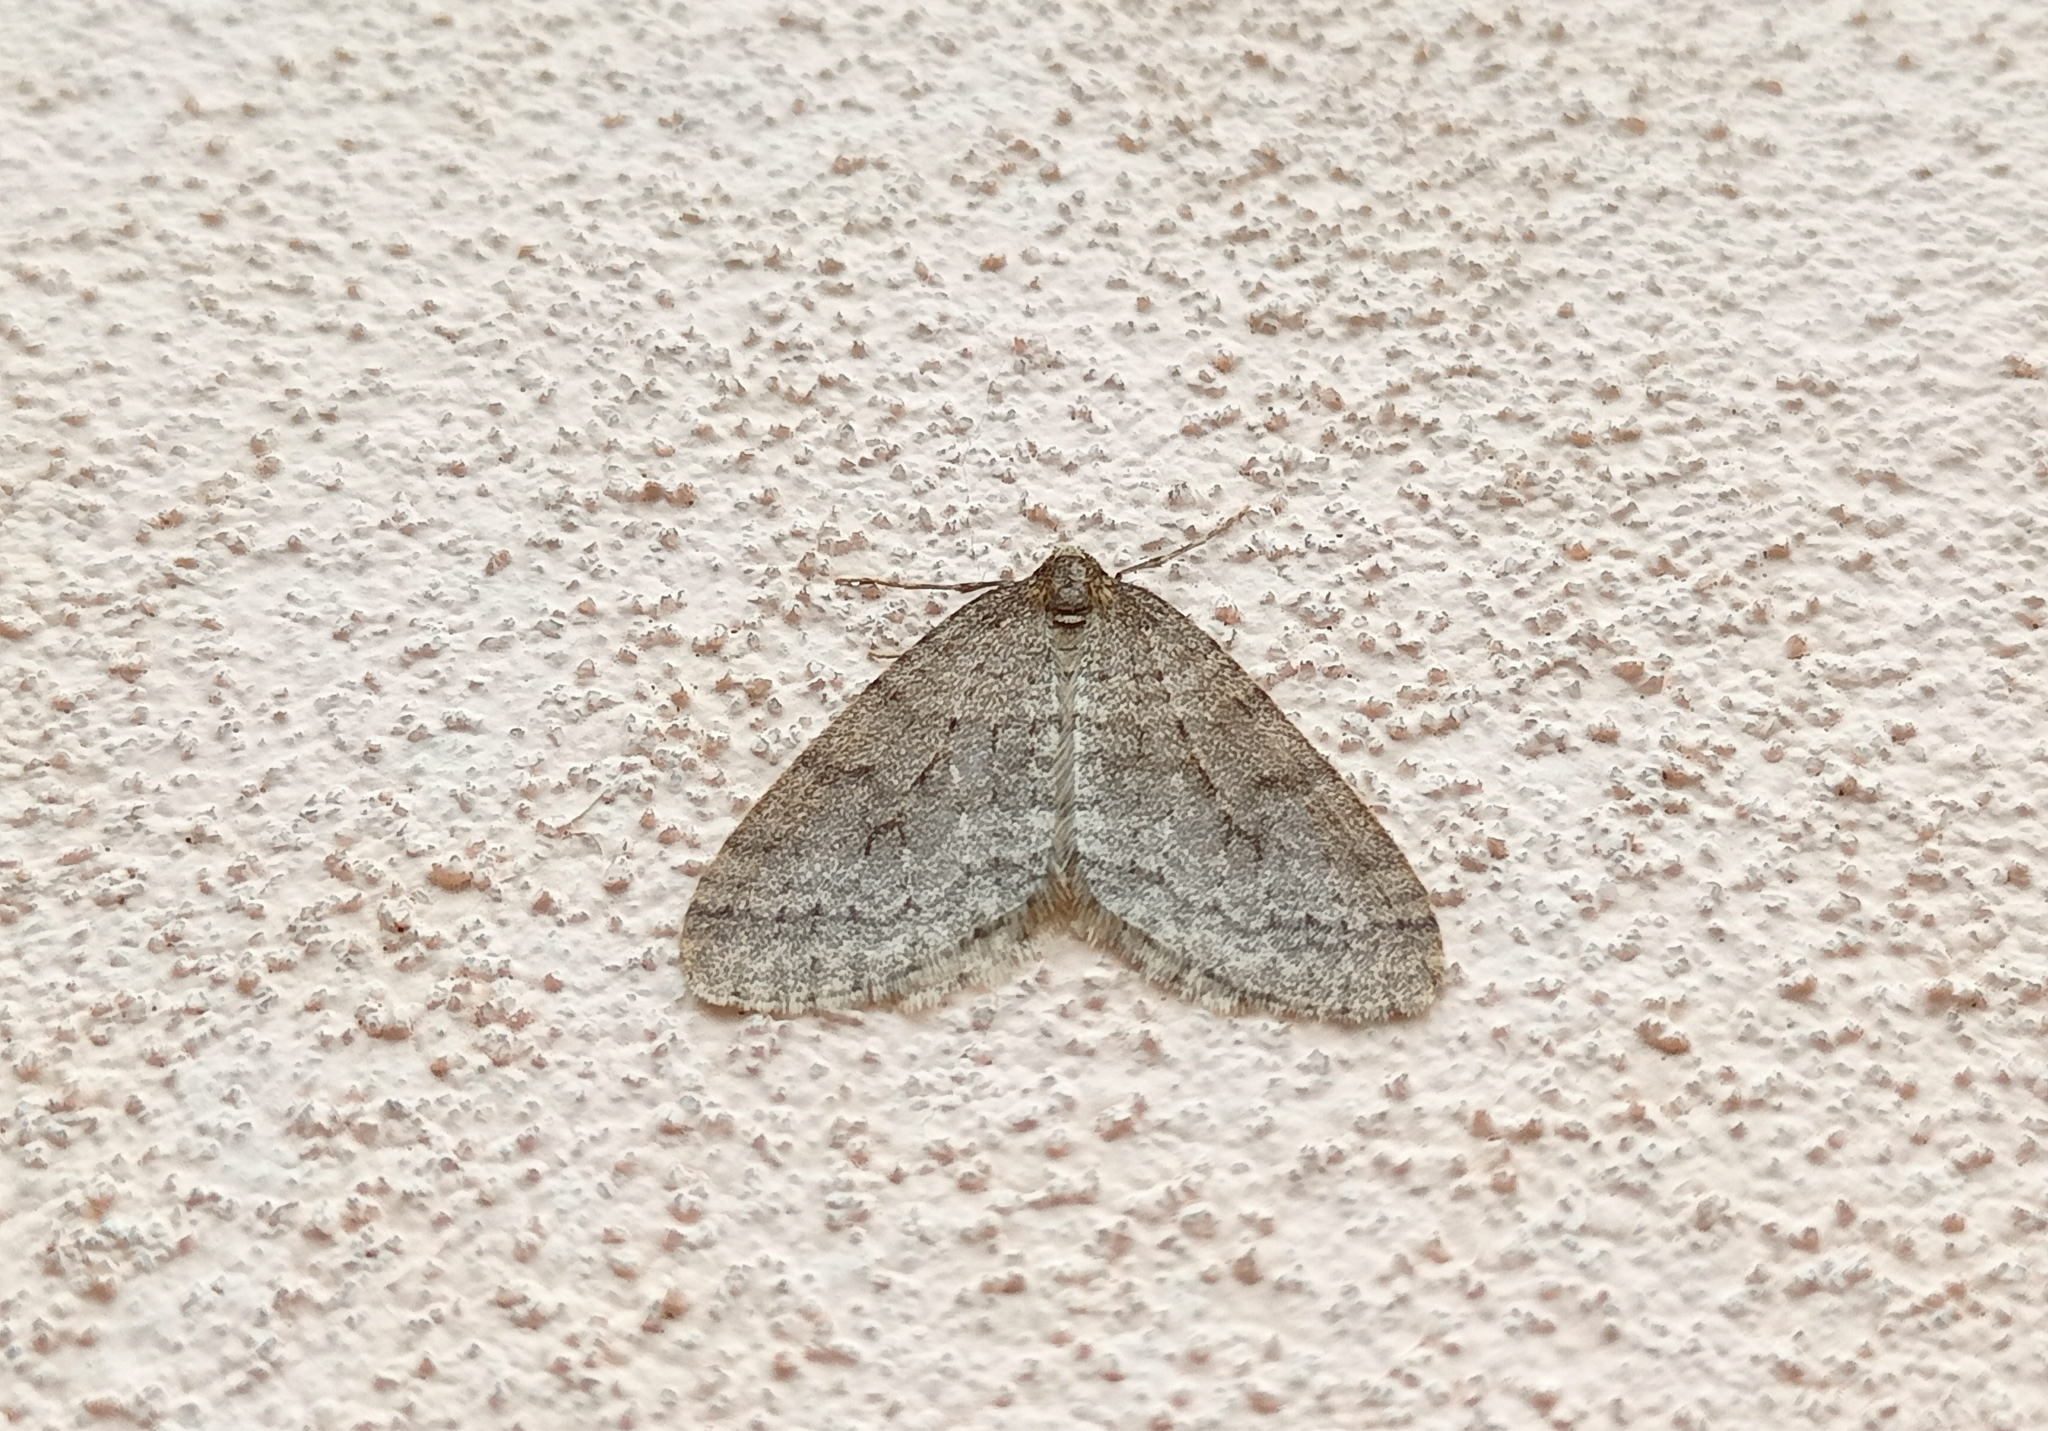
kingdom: Animalia
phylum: Arthropoda
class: Insecta
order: Lepidoptera
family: Geometridae
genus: Operophtera
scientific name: Operophtera brumata
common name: Winter moth
